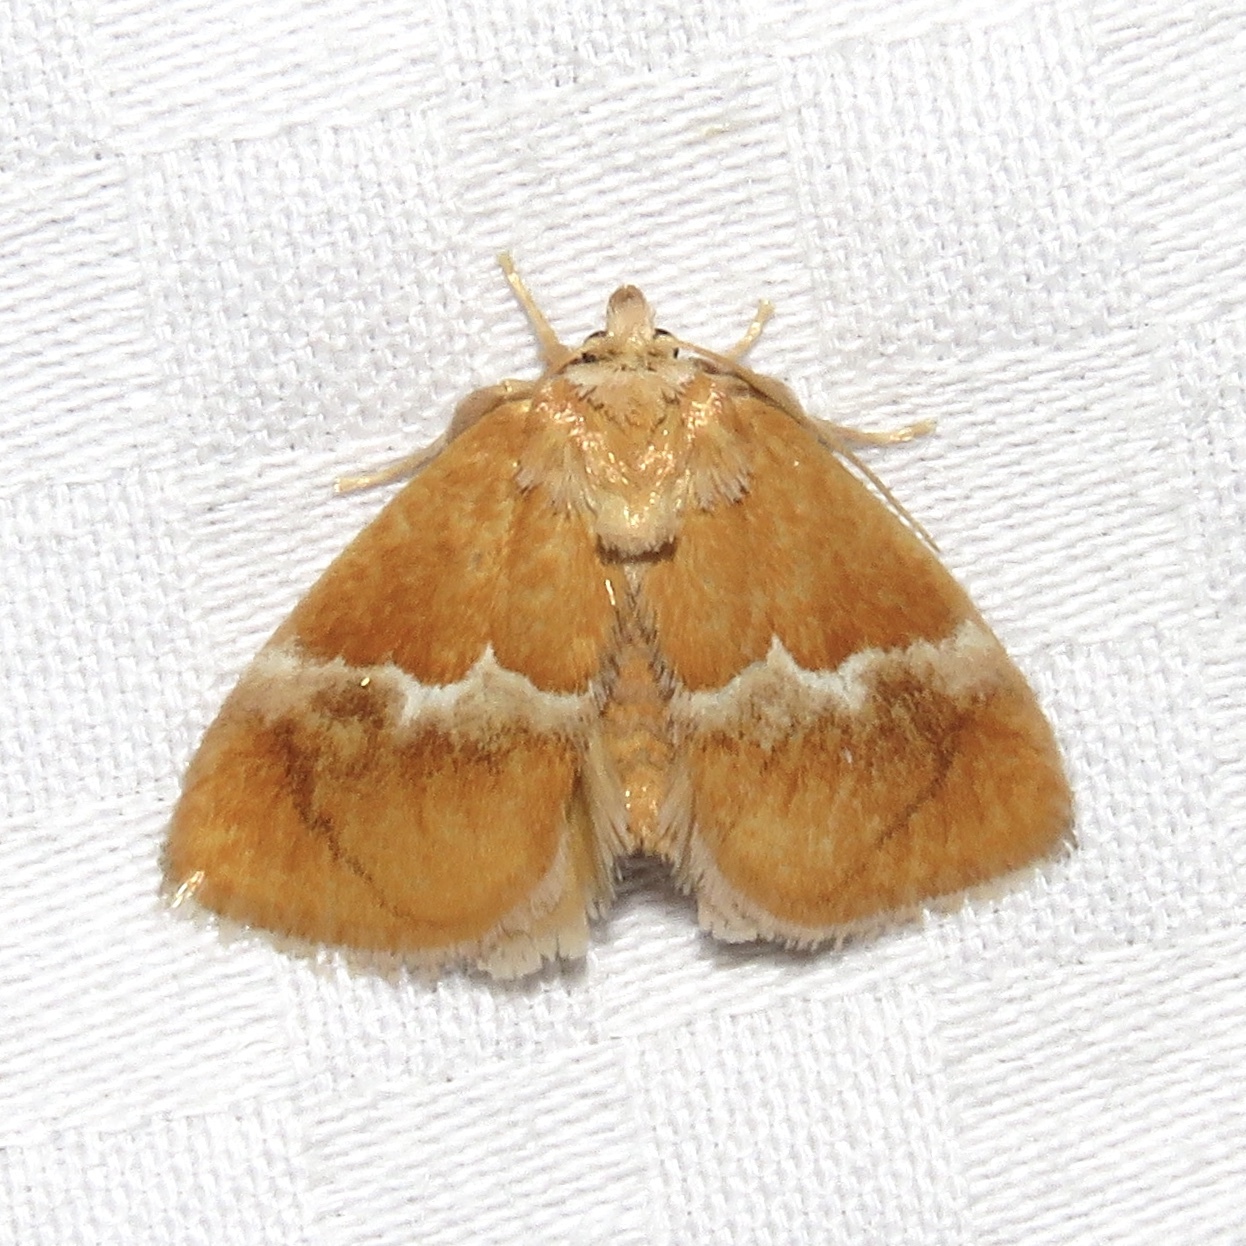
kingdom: Animalia
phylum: Arthropoda
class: Insecta
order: Lepidoptera
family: Limacodidae
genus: Lithacodes
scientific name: Lithacodes fasciola
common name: Yellow-shouldered slug moth
